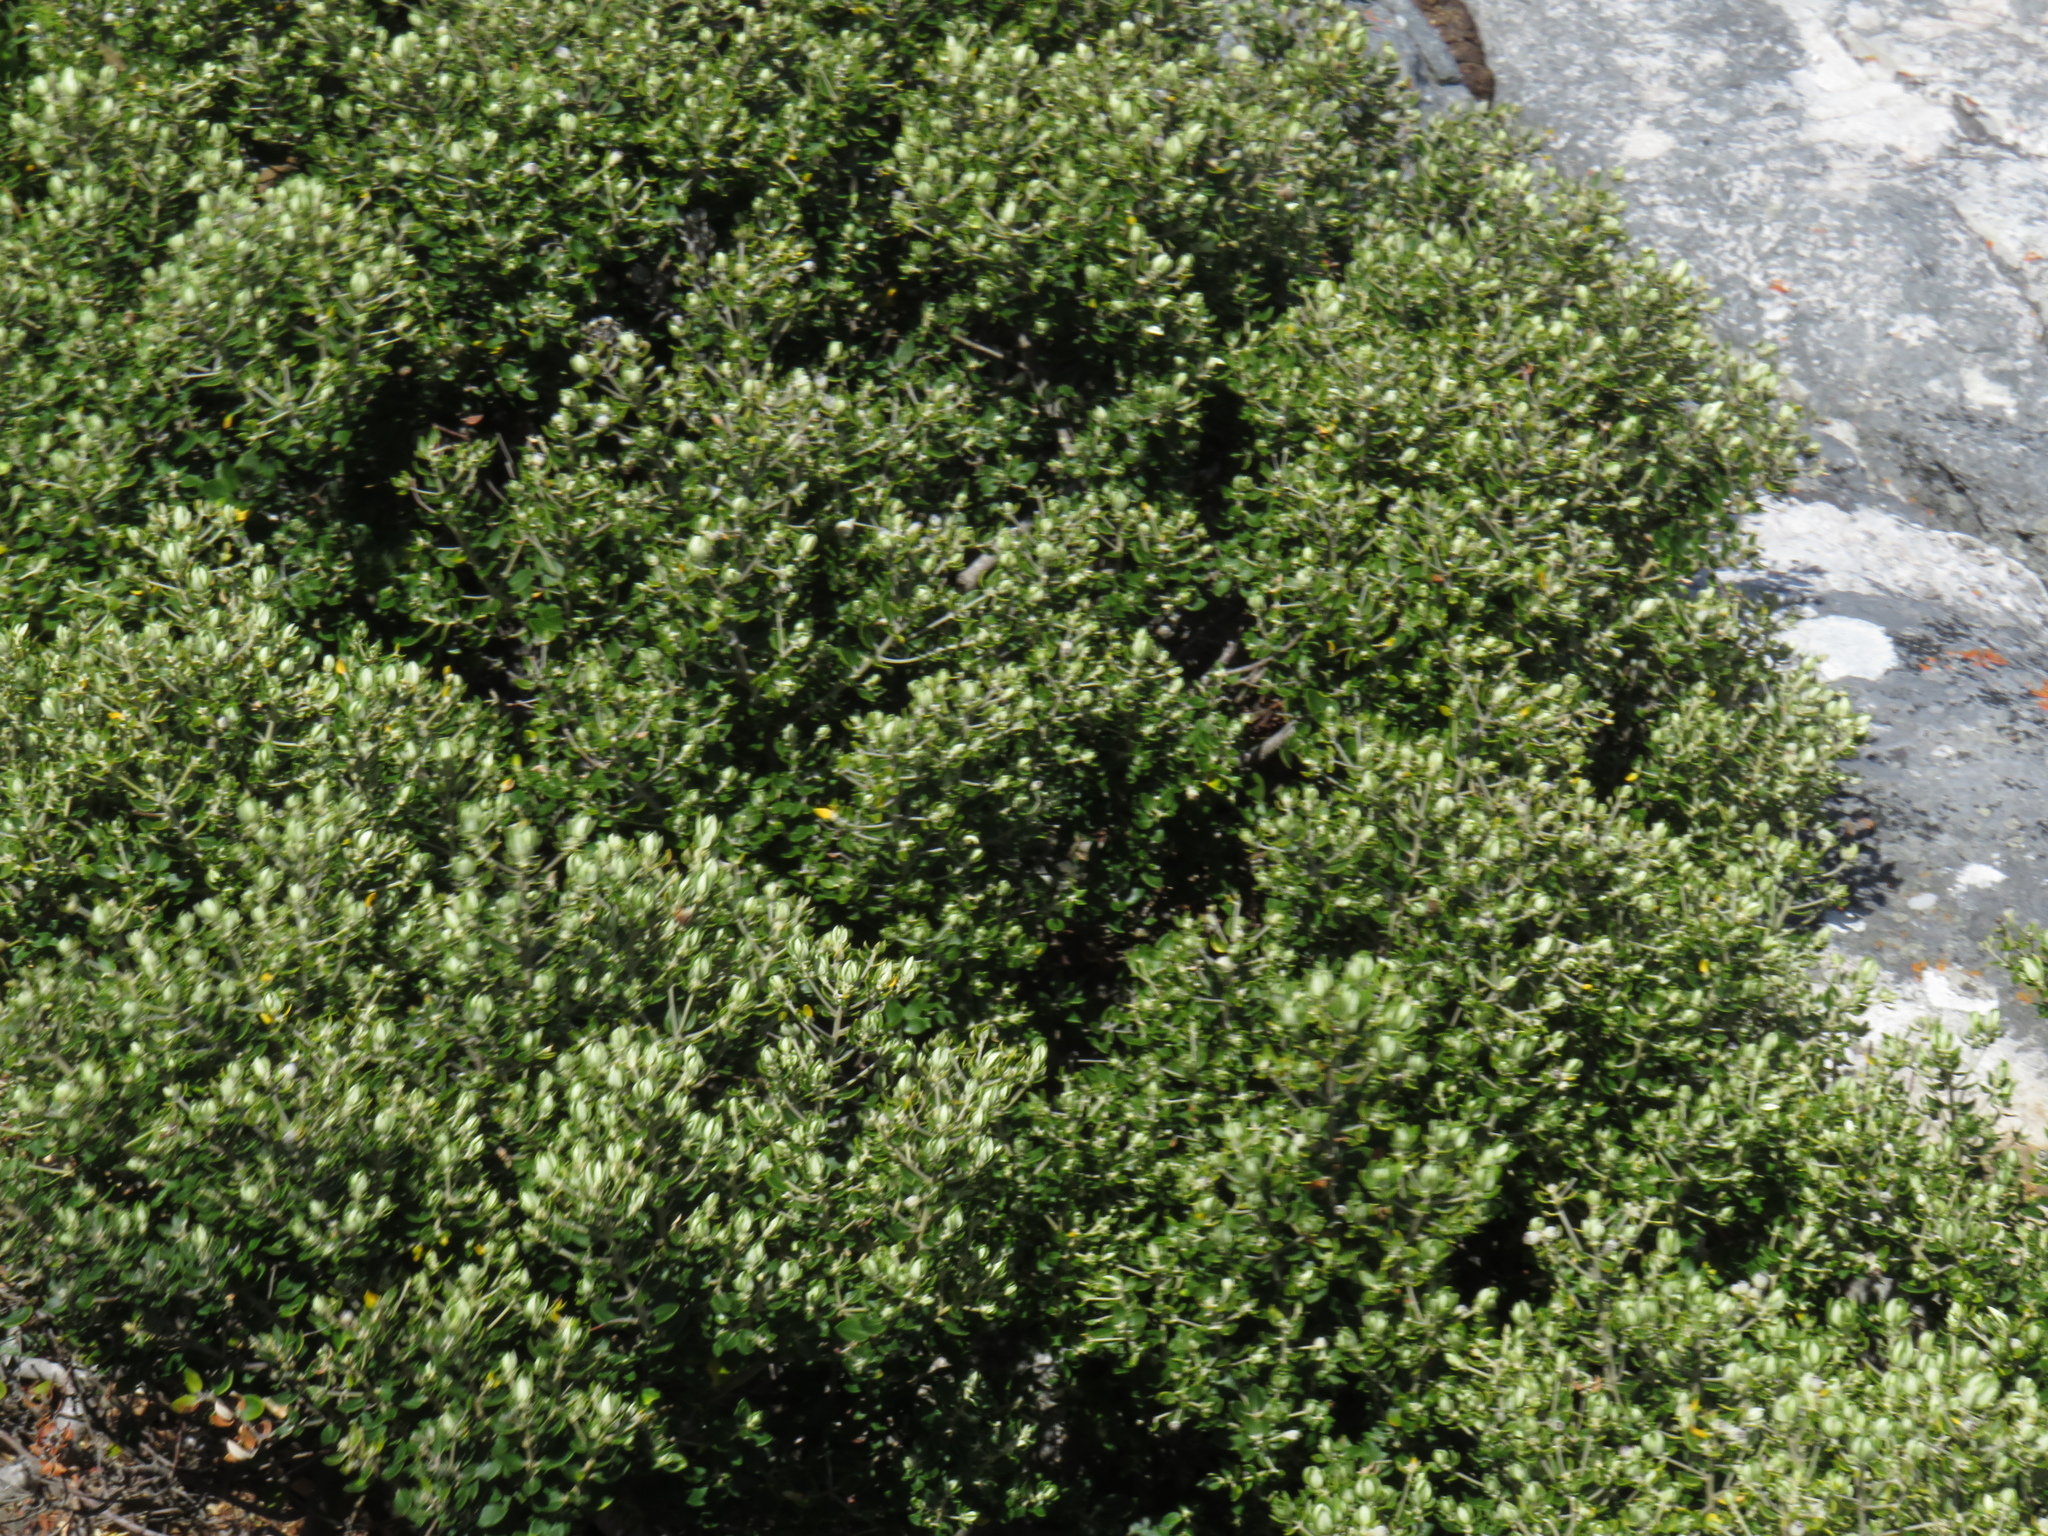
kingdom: Plantae
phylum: Tracheophyta
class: Magnoliopsida
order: Rosales
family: Rhamnaceae
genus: Phylica
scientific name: Phylica buxifolia
